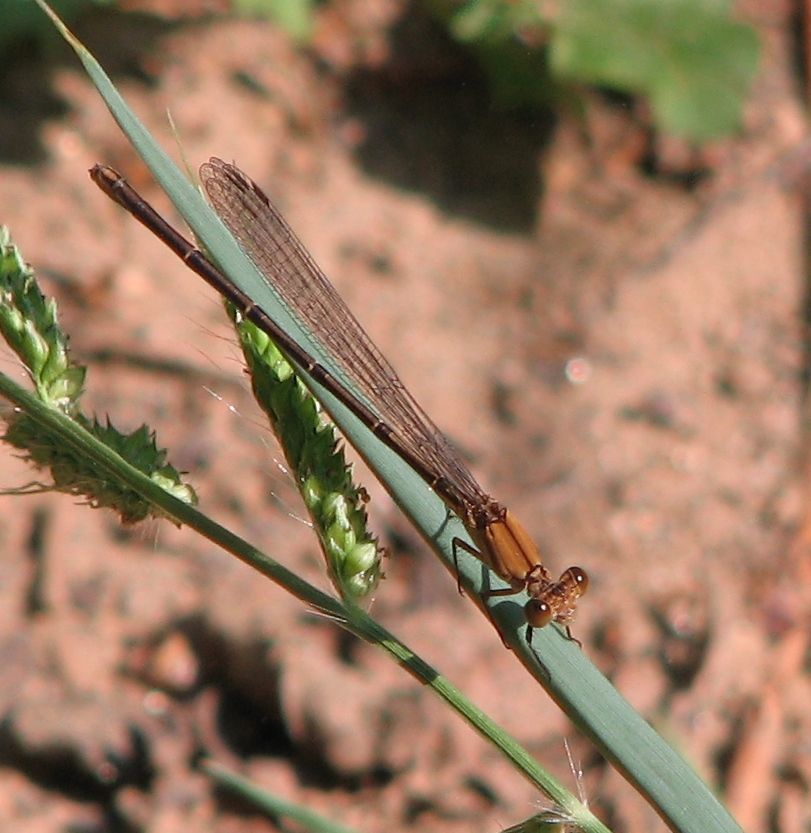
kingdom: Animalia
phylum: Arthropoda
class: Insecta
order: Odonata
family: Coenagrionidae
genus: Argia
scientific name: Argia apicalis
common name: Blue-fronted dancer
